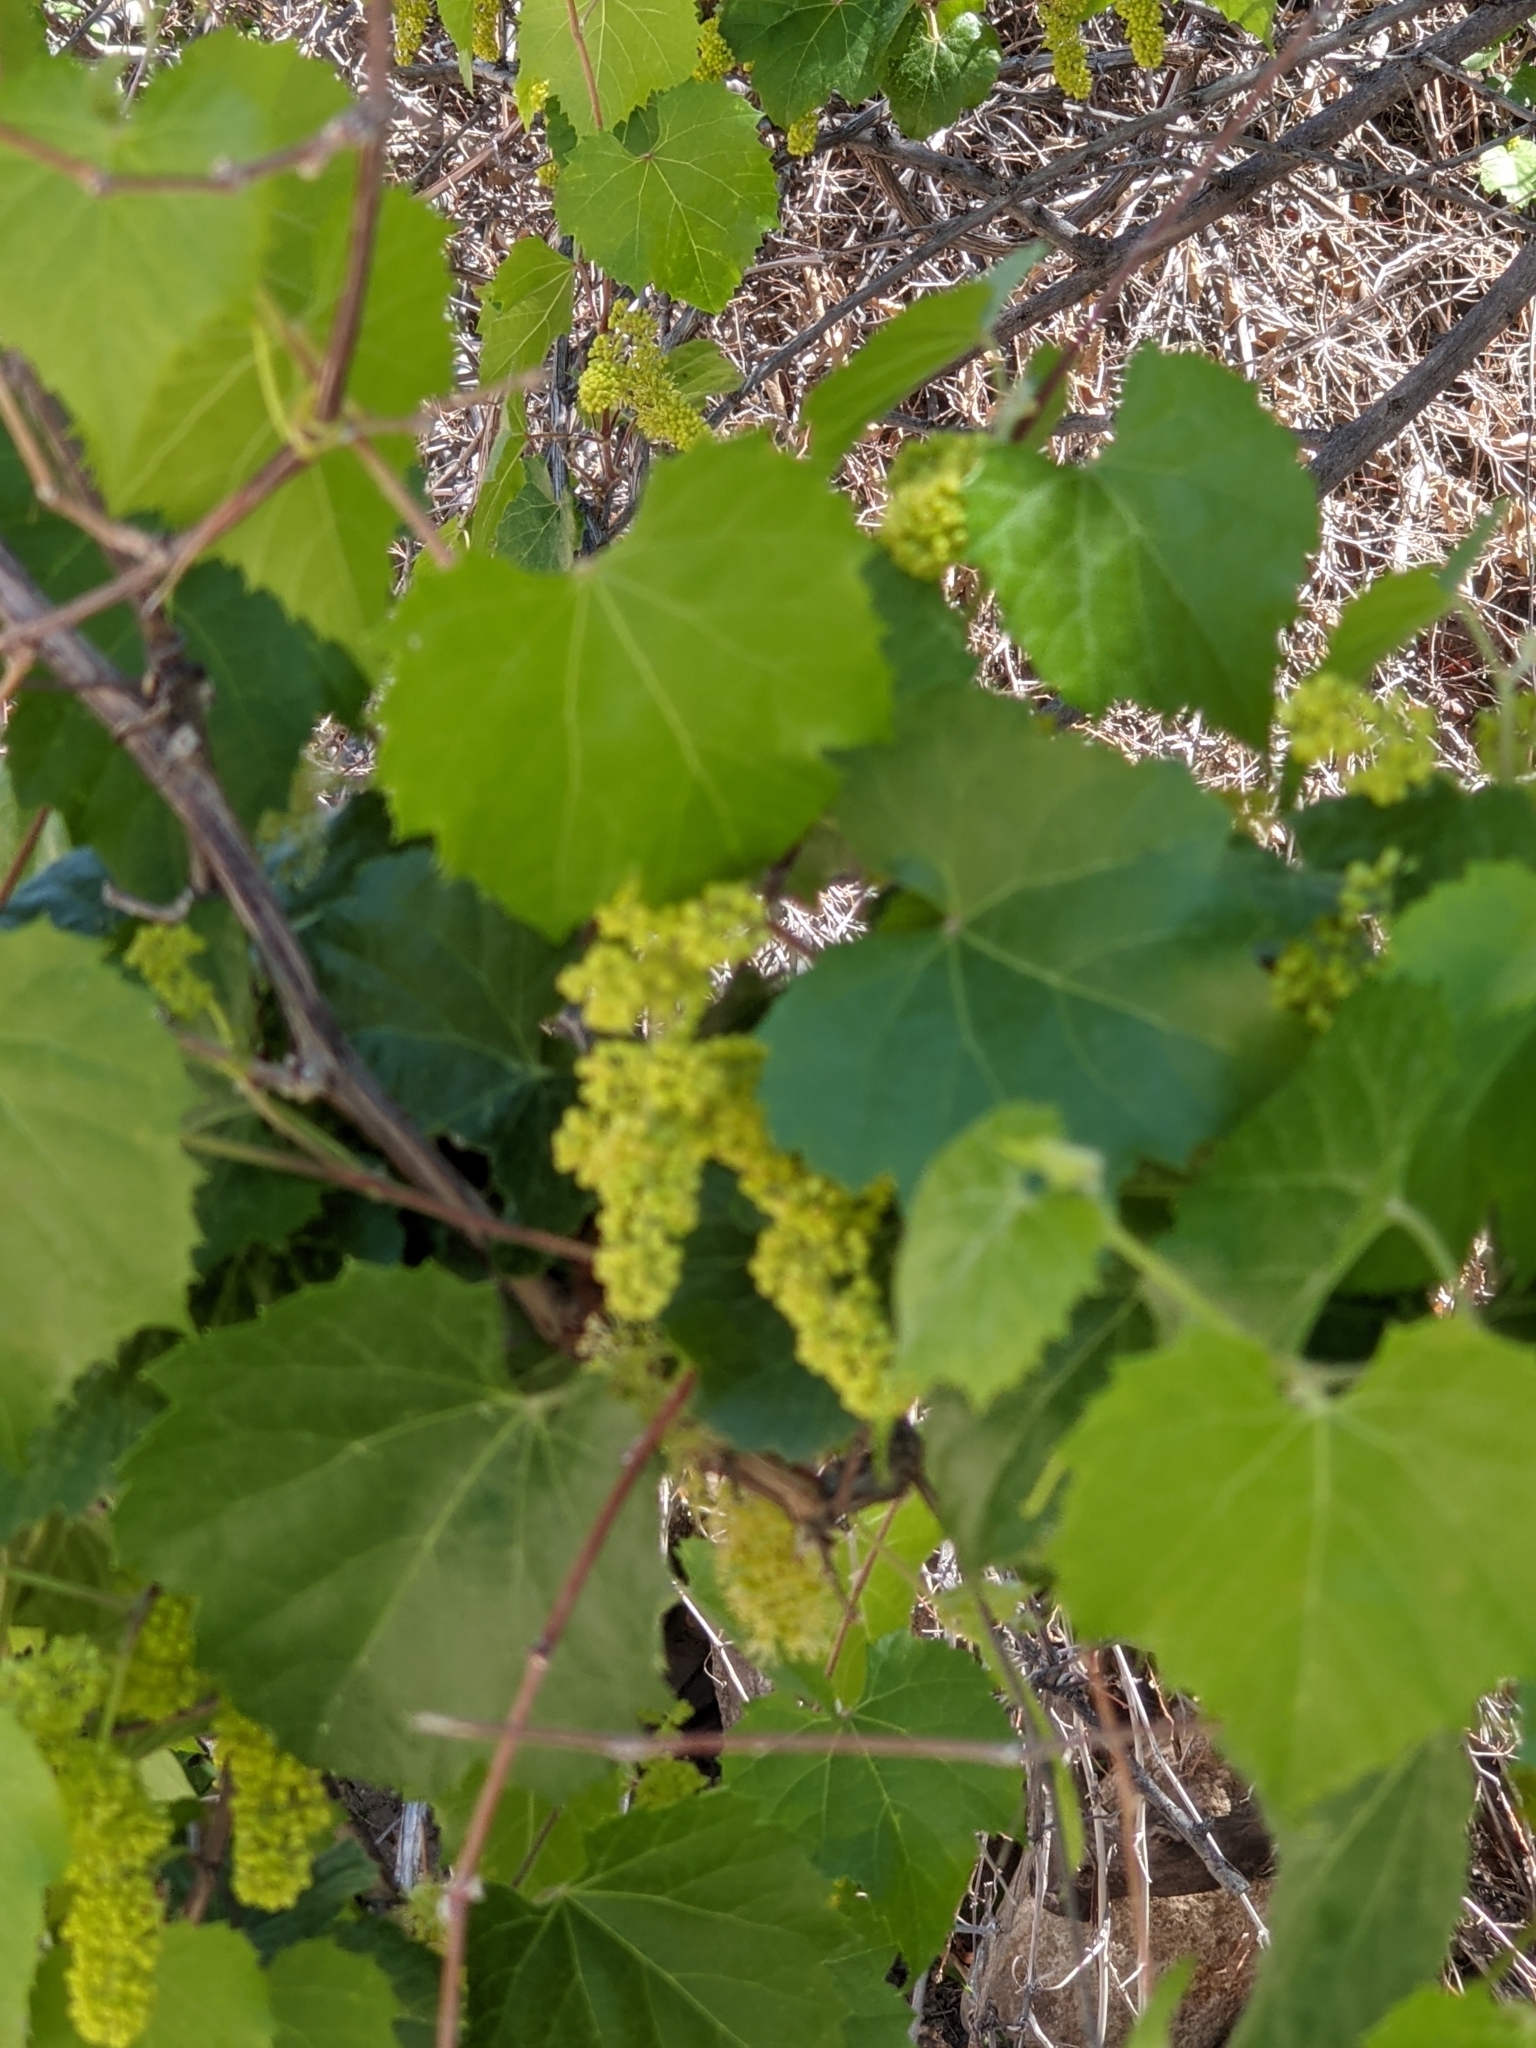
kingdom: Plantae
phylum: Tracheophyta
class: Magnoliopsida
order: Vitales
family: Vitaceae
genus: Vitis
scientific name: Vitis arizonica
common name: Canyon grape
